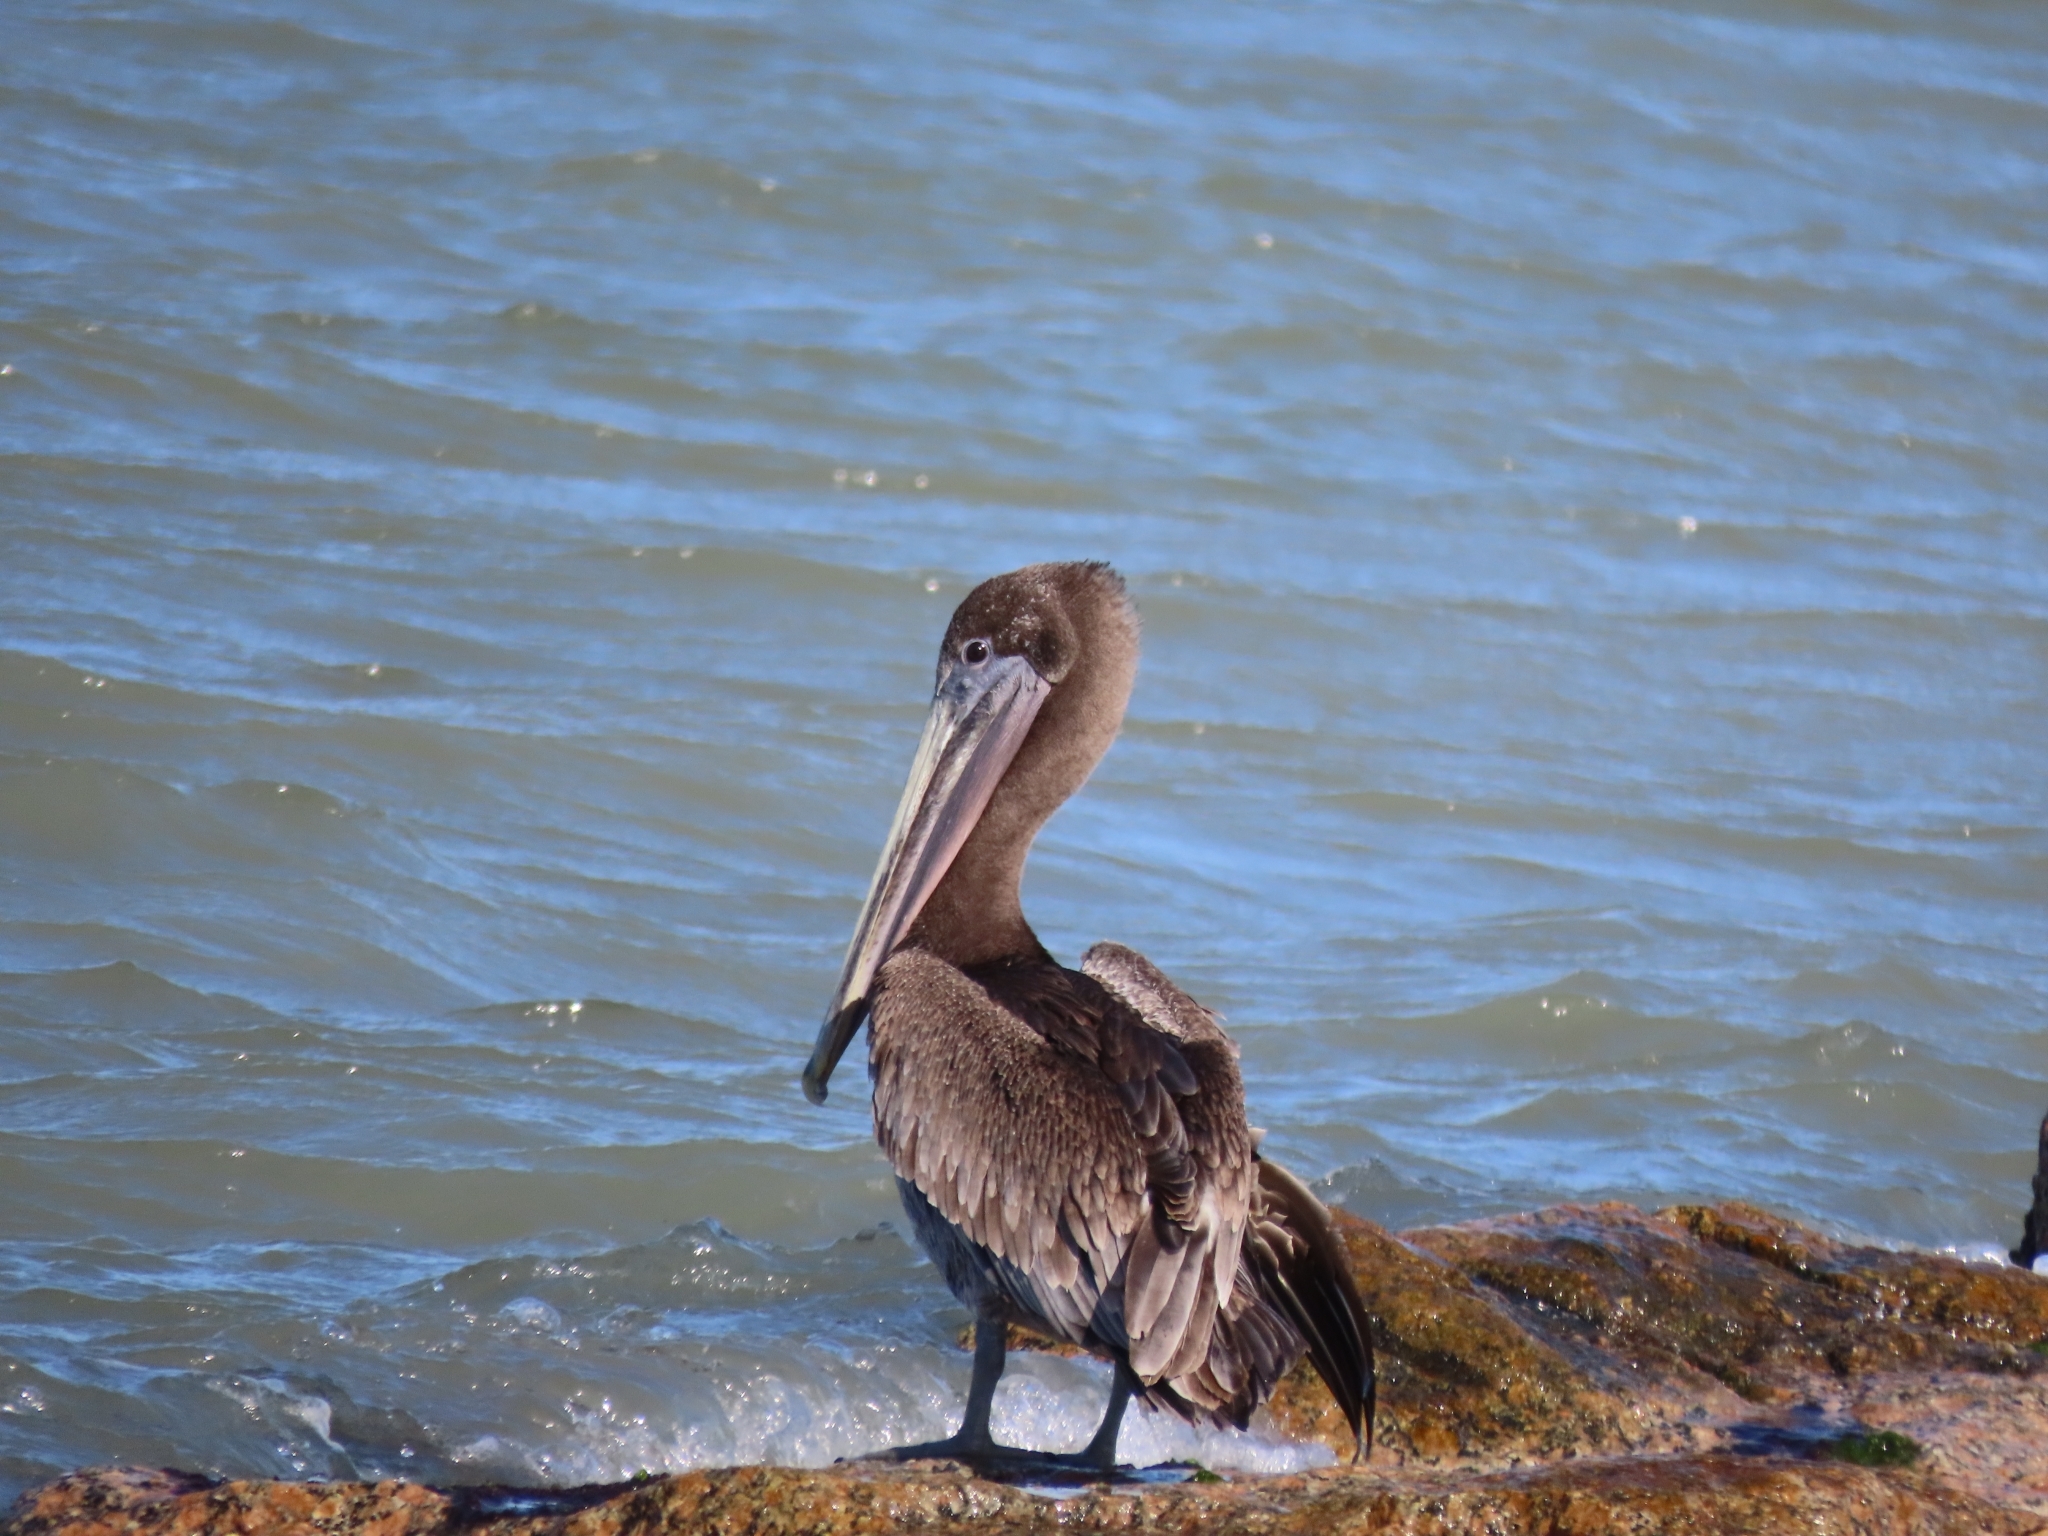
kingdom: Animalia
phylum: Chordata
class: Aves
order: Pelecaniformes
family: Pelecanidae
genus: Pelecanus
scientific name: Pelecanus occidentalis
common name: Brown pelican
